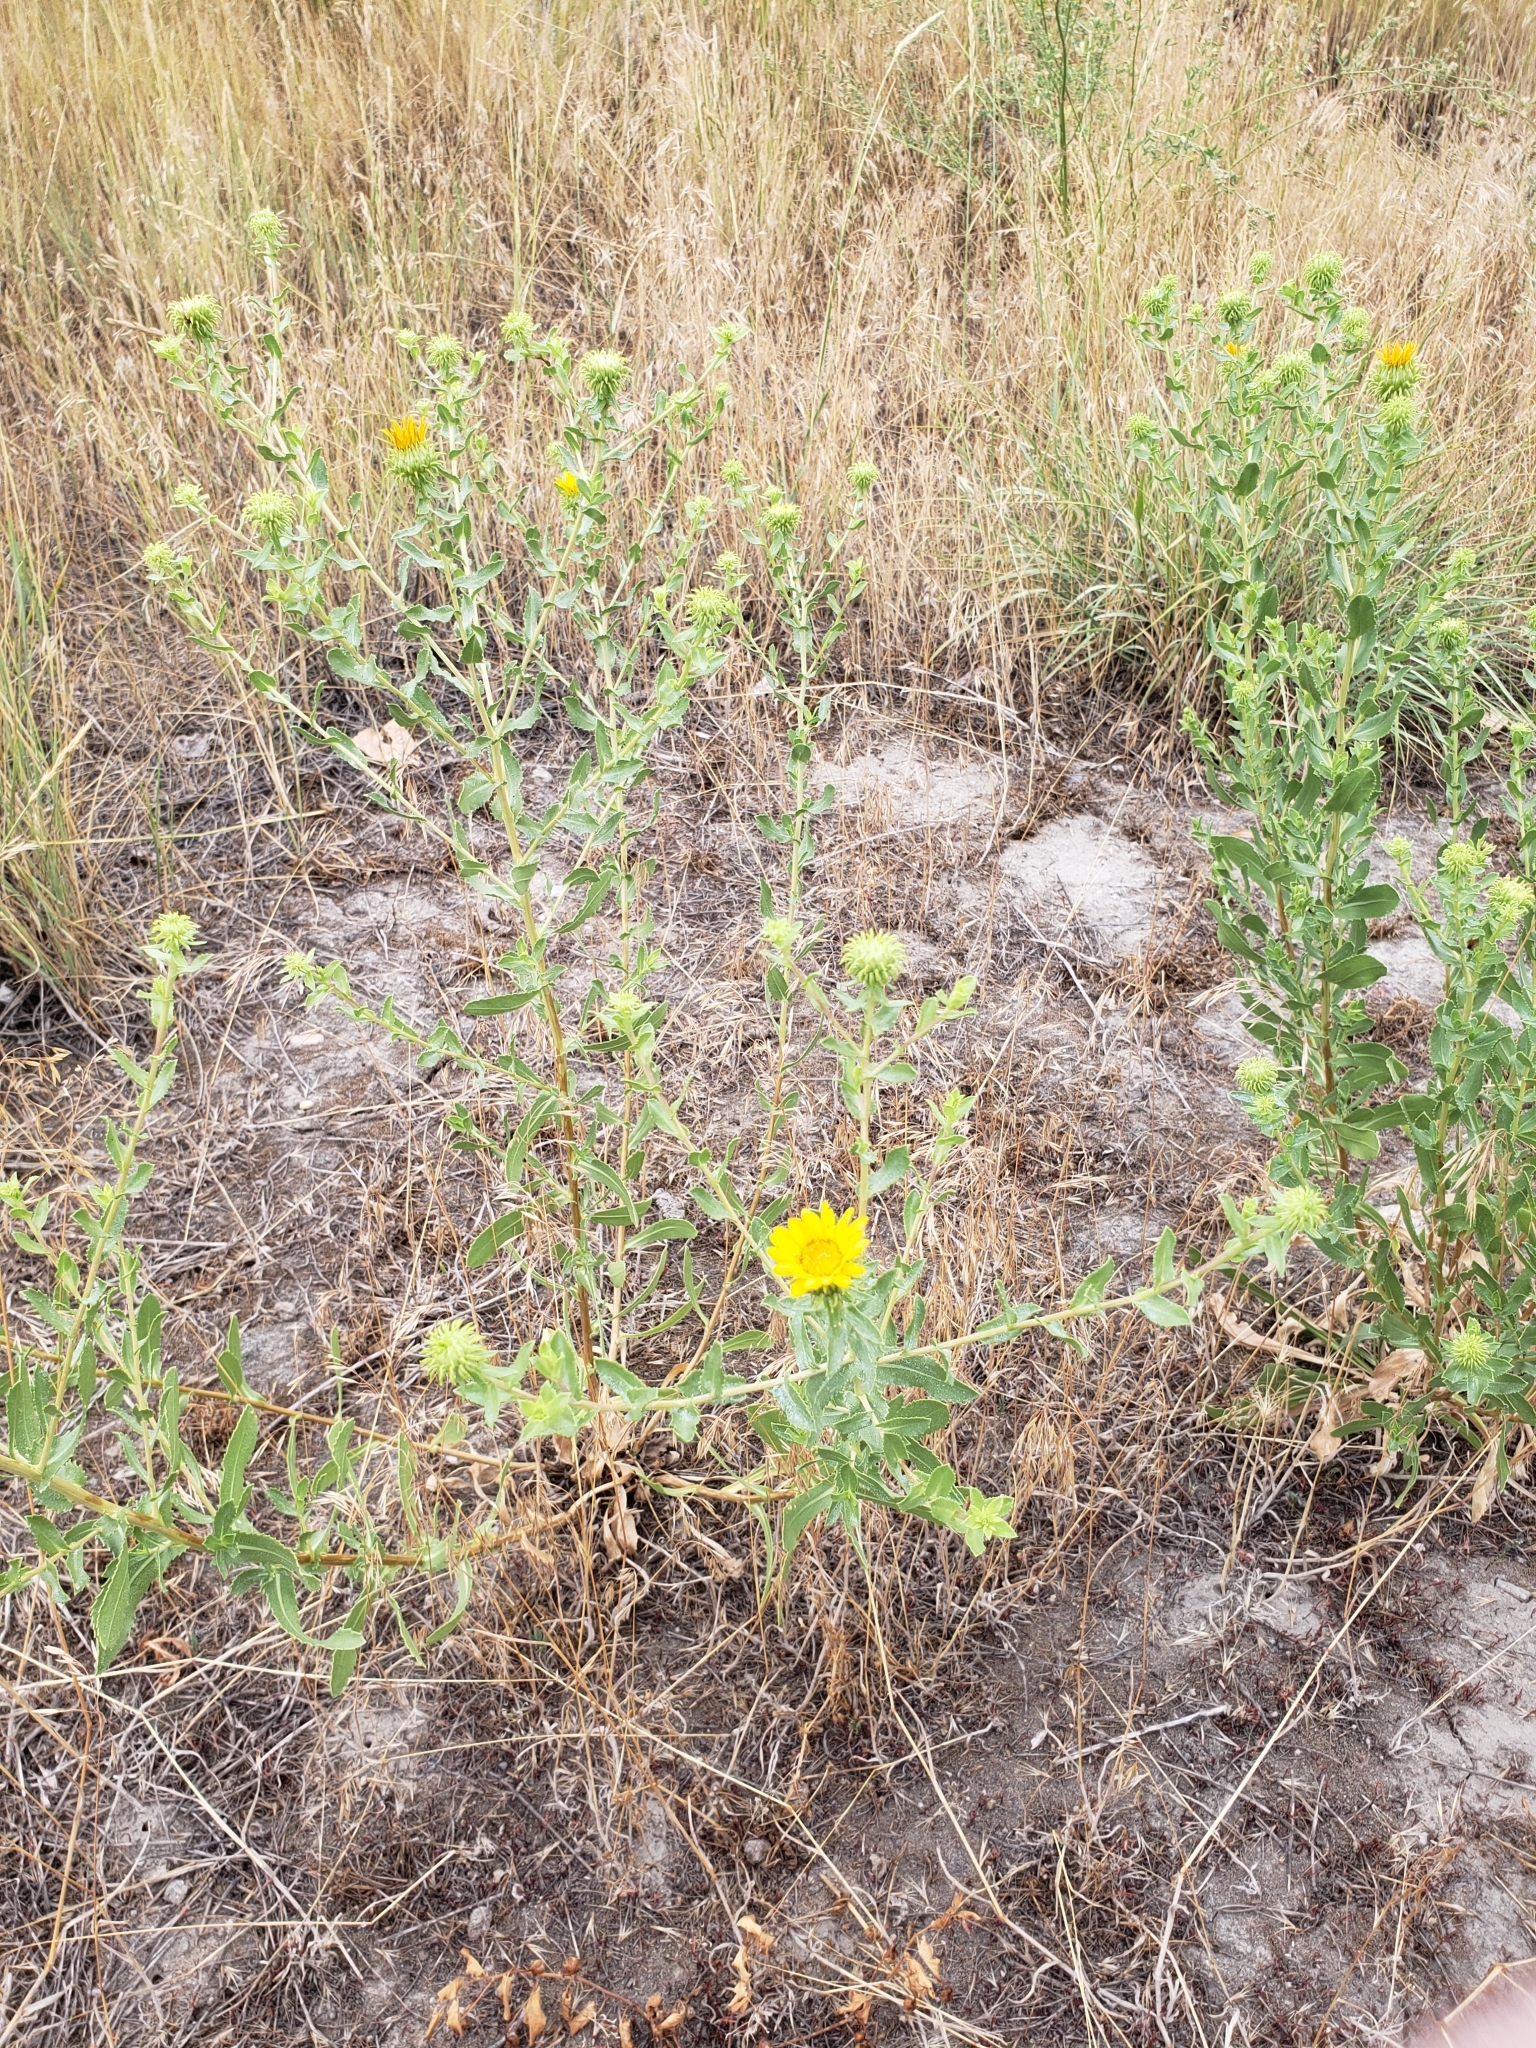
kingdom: Plantae
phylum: Tracheophyta
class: Magnoliopsida
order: Asterales
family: Asteraceae
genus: Grindelia
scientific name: Grindelia squarrosa
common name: Curly-cup gumweed
